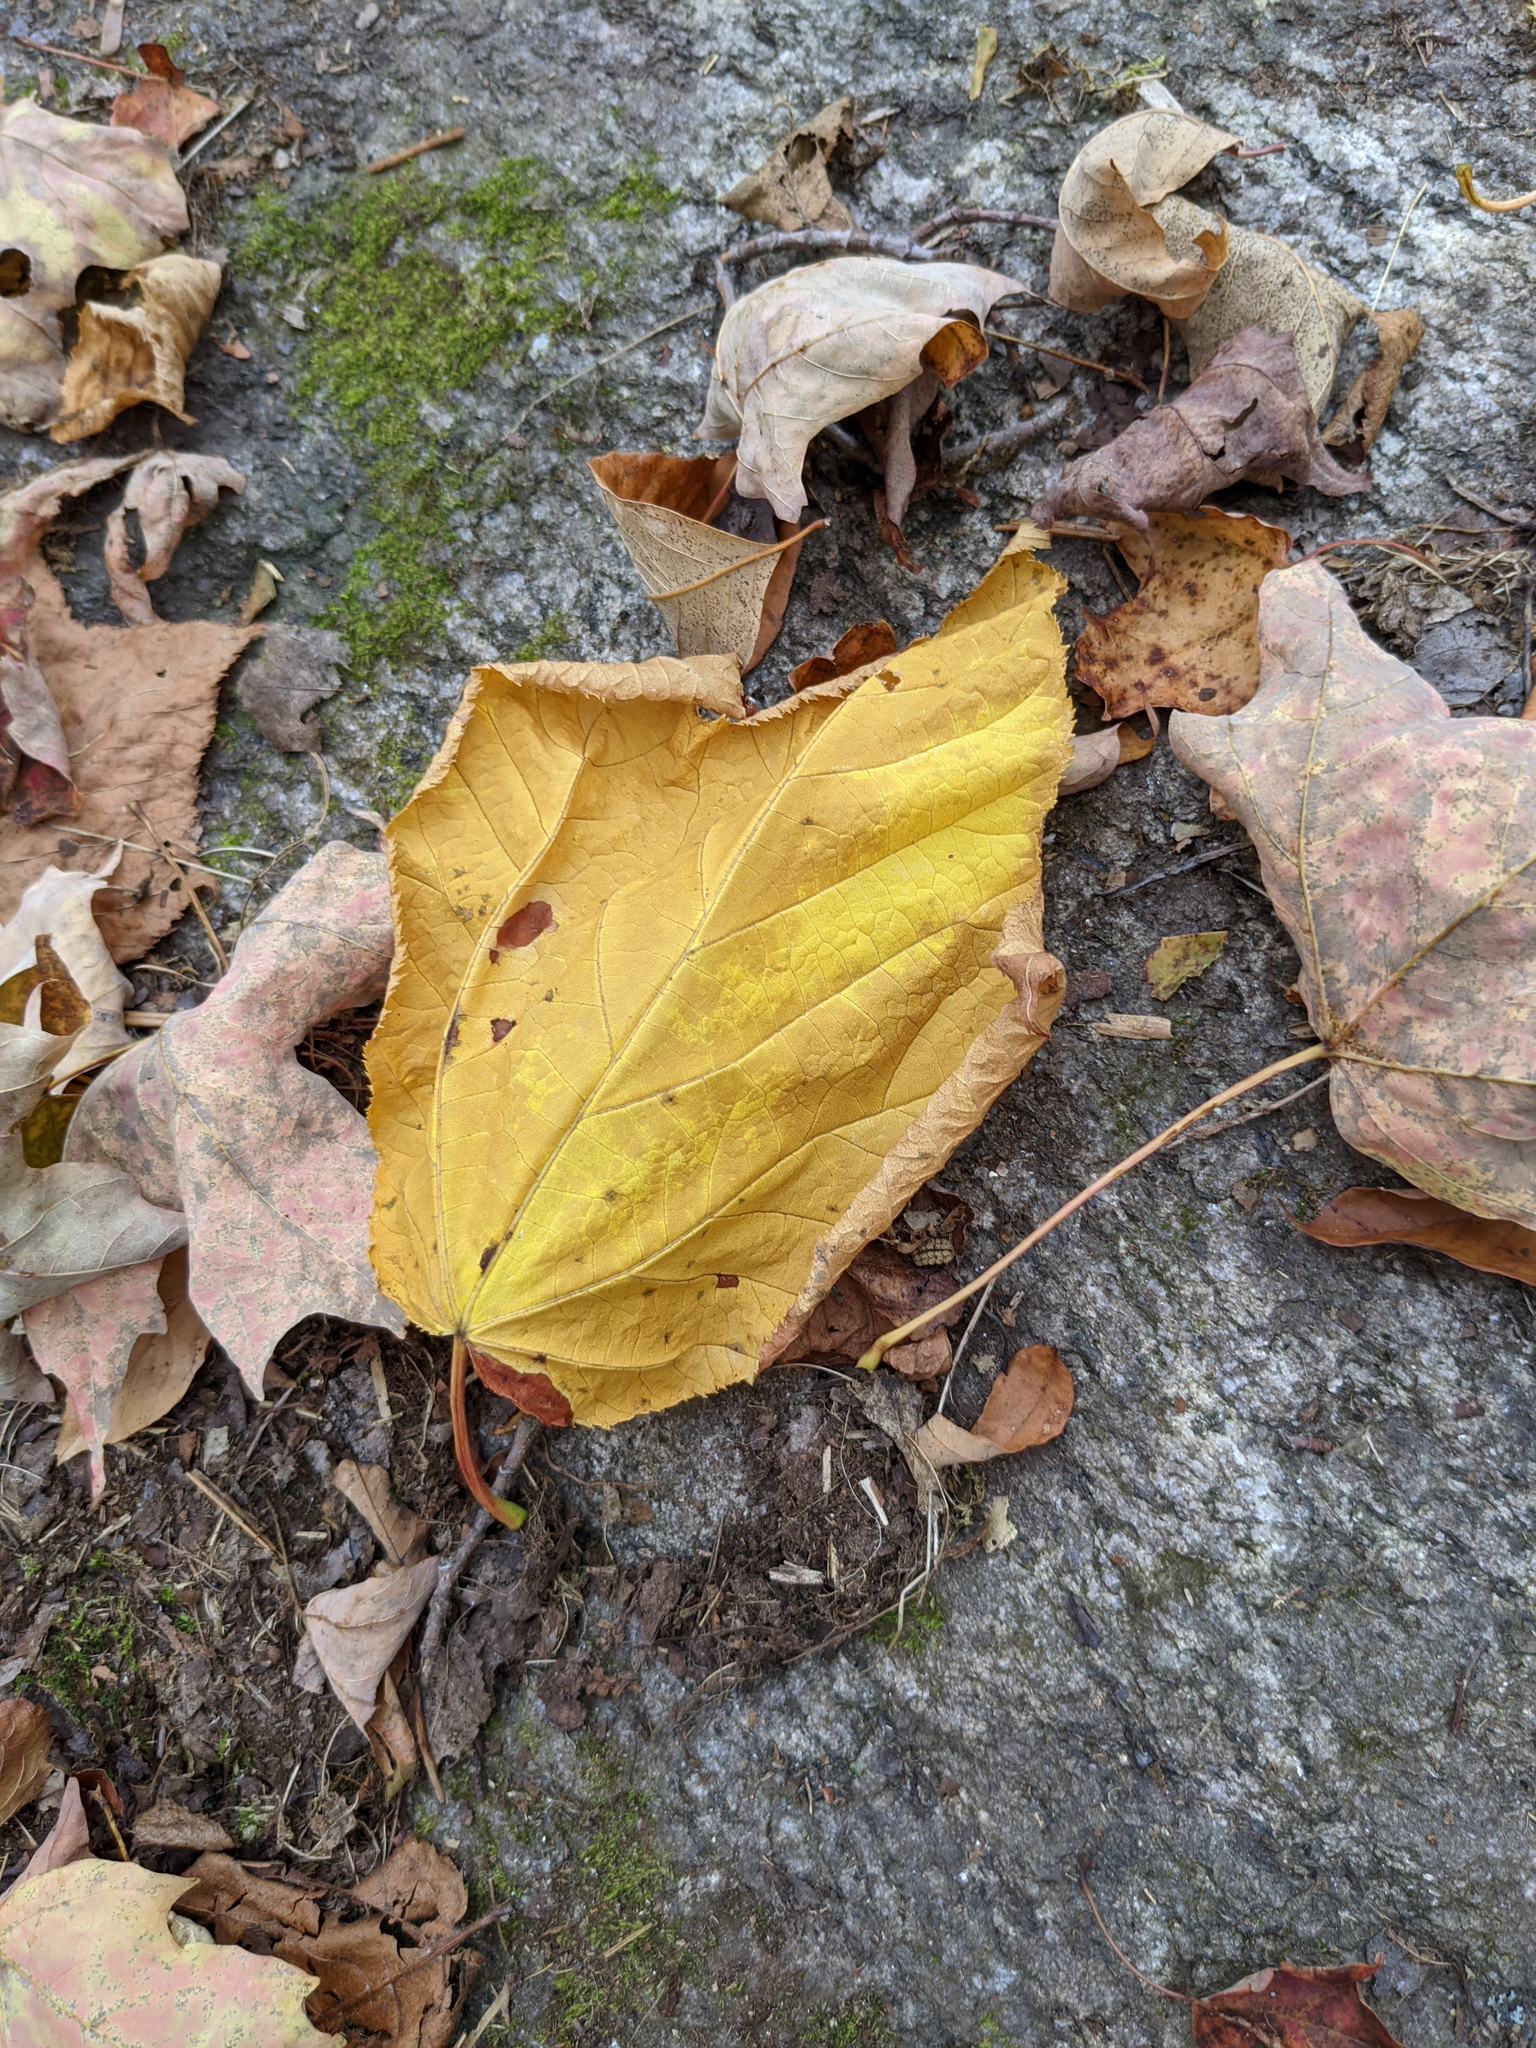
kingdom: Plantae
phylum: Tracheophyta
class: Magnoliopsida
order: Sapindales
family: Sapindaceae
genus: Acer
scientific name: Acer pensylvanicum
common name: Moosewood
